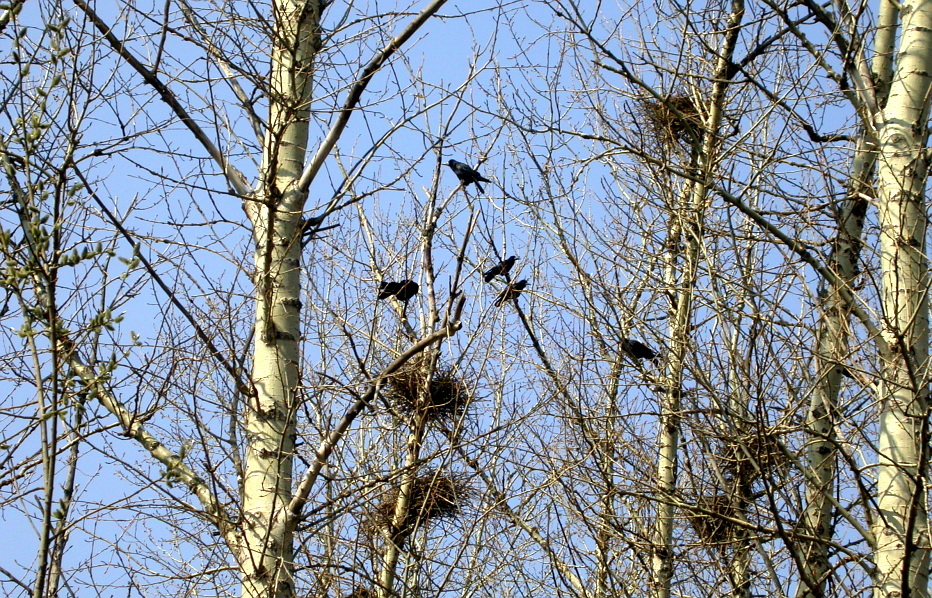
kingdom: Animalia
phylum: Chordata
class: Aves
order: Passeriformes
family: Corvidae
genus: Corvus
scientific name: Corvus frugilegus
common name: Rook
